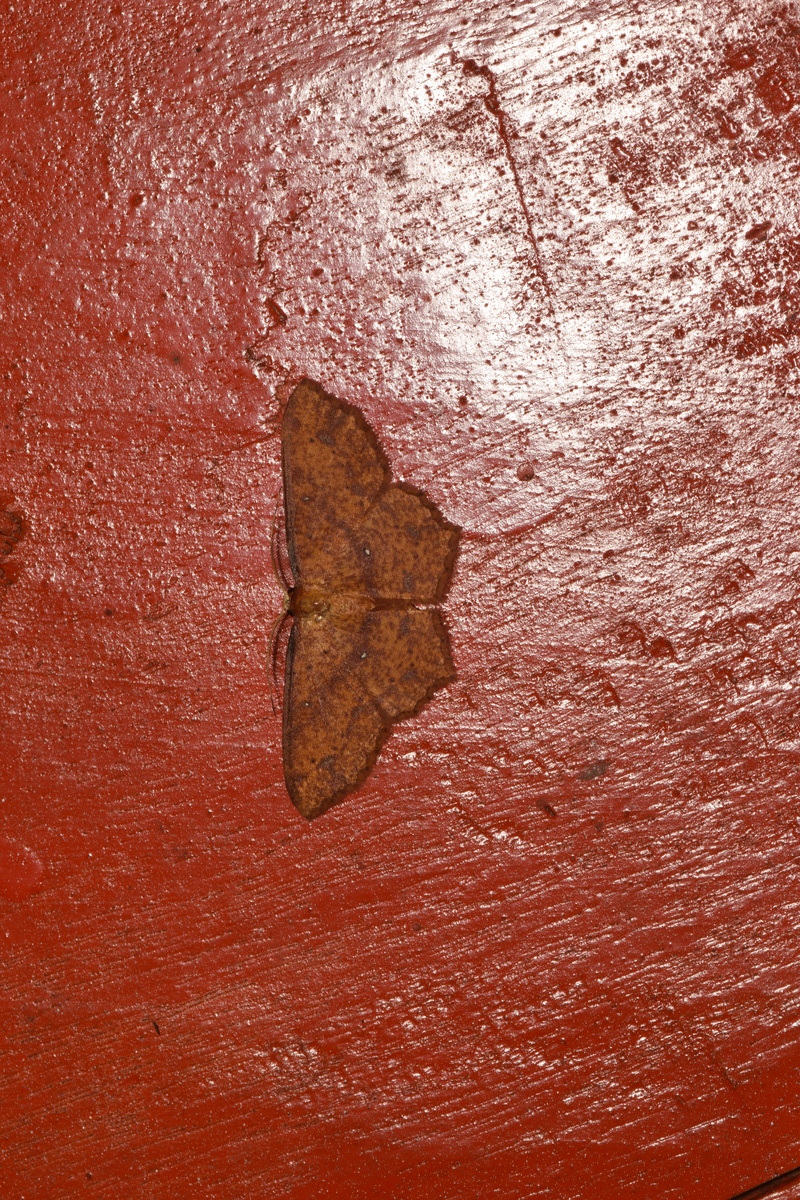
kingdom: Animalia
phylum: Arthropoda
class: Insecta
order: Lepidoptera
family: Geometridae
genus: Synegiodes
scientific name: Synegiodes hyriaria
